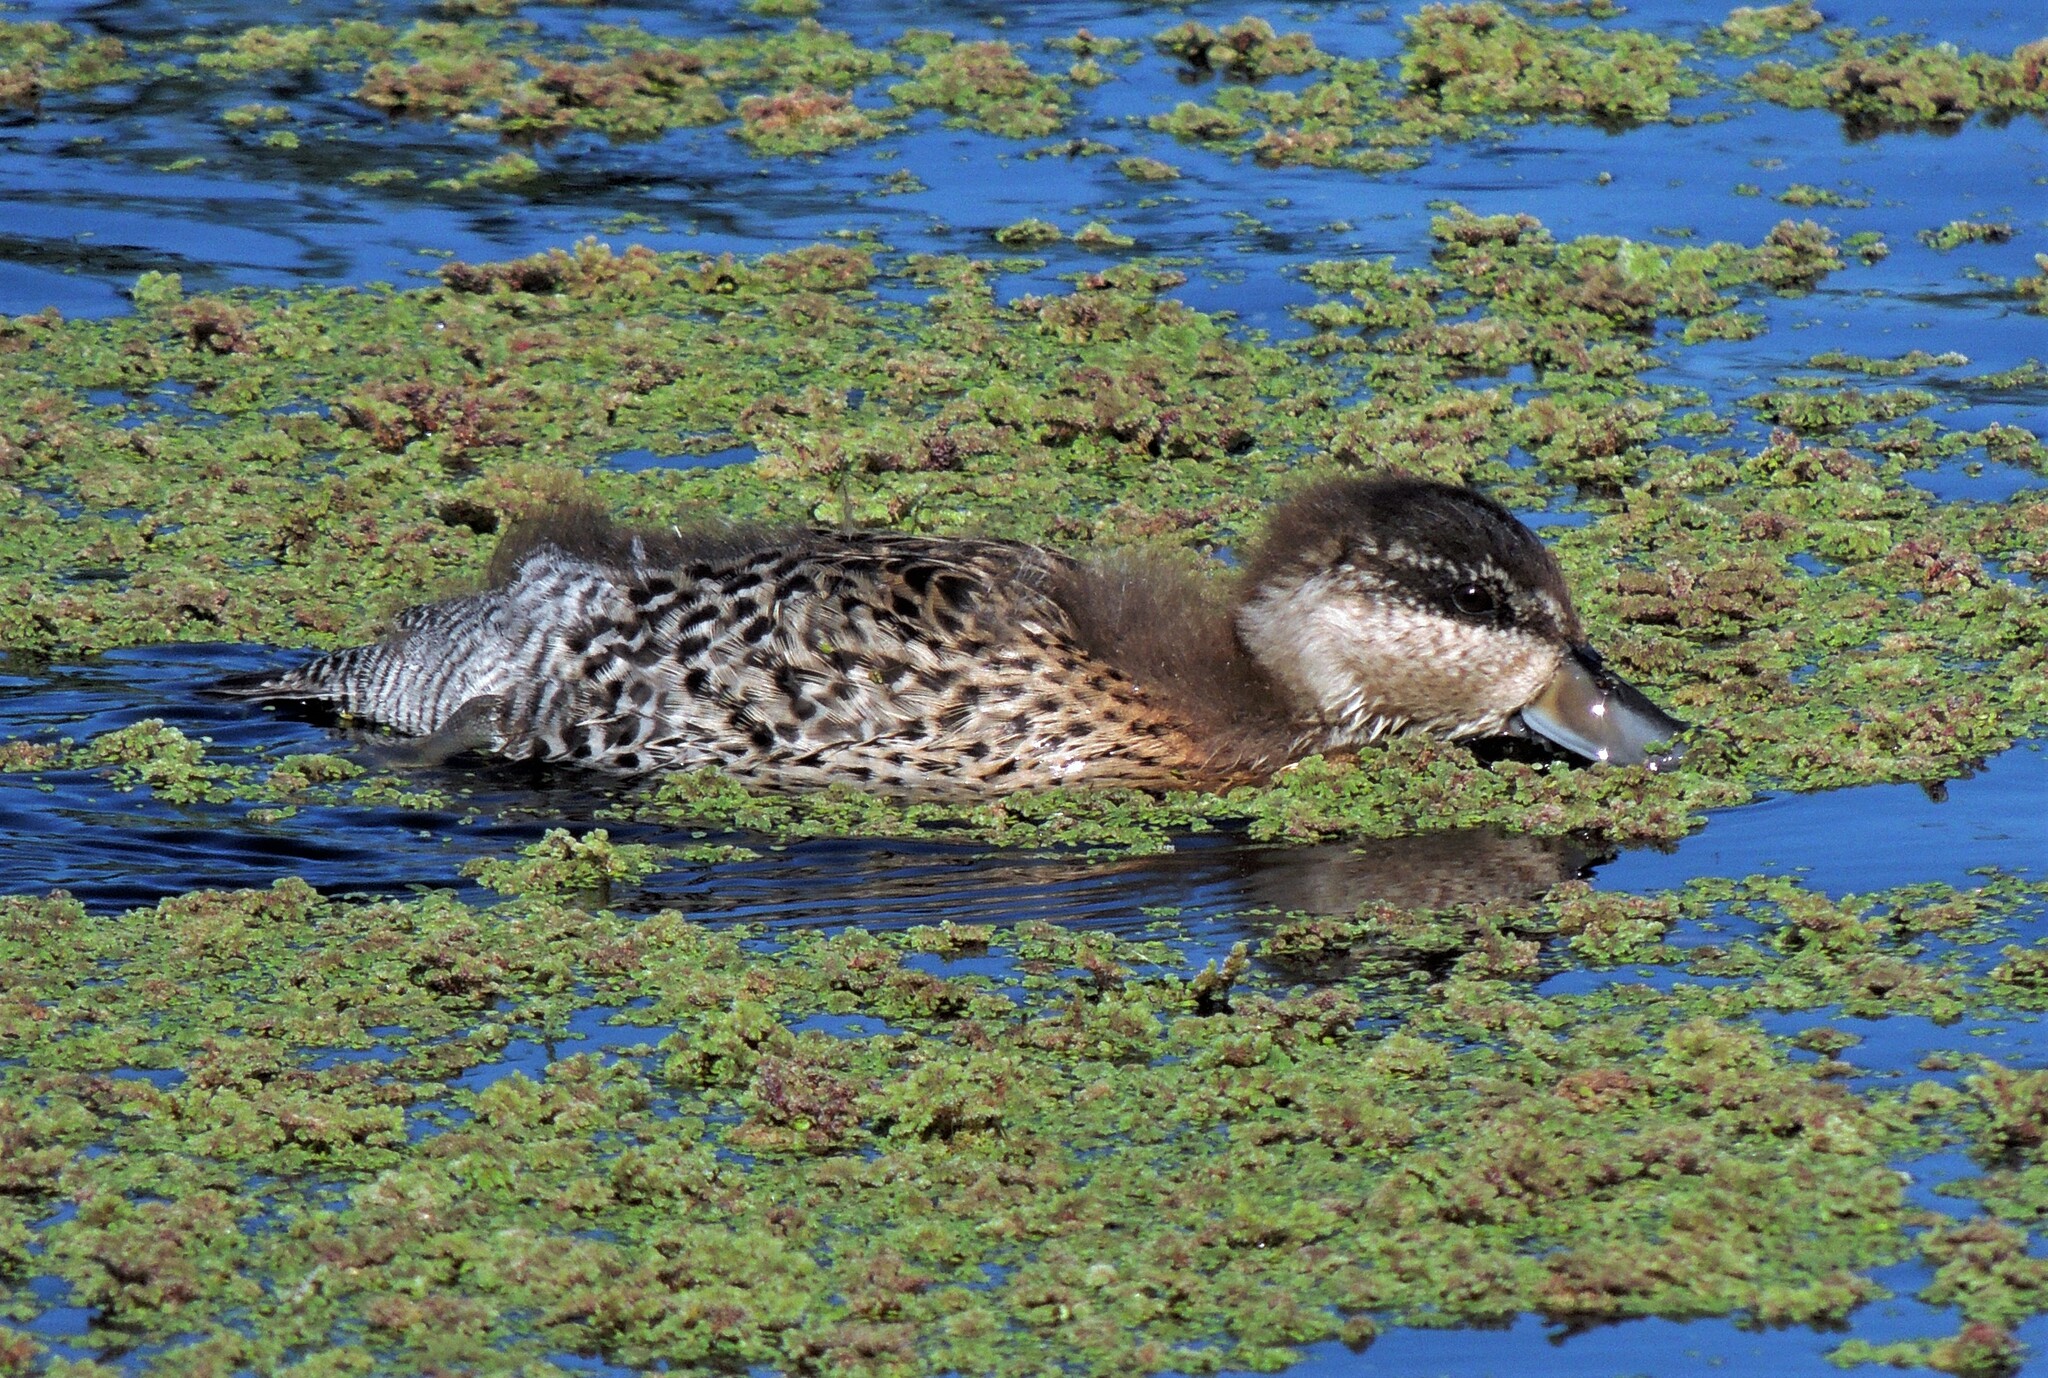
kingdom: Animalia
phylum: Chordata
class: Aves
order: Anseriformes
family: Anatidae
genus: Spatula
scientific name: Spatula versicolor
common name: Silver teal
